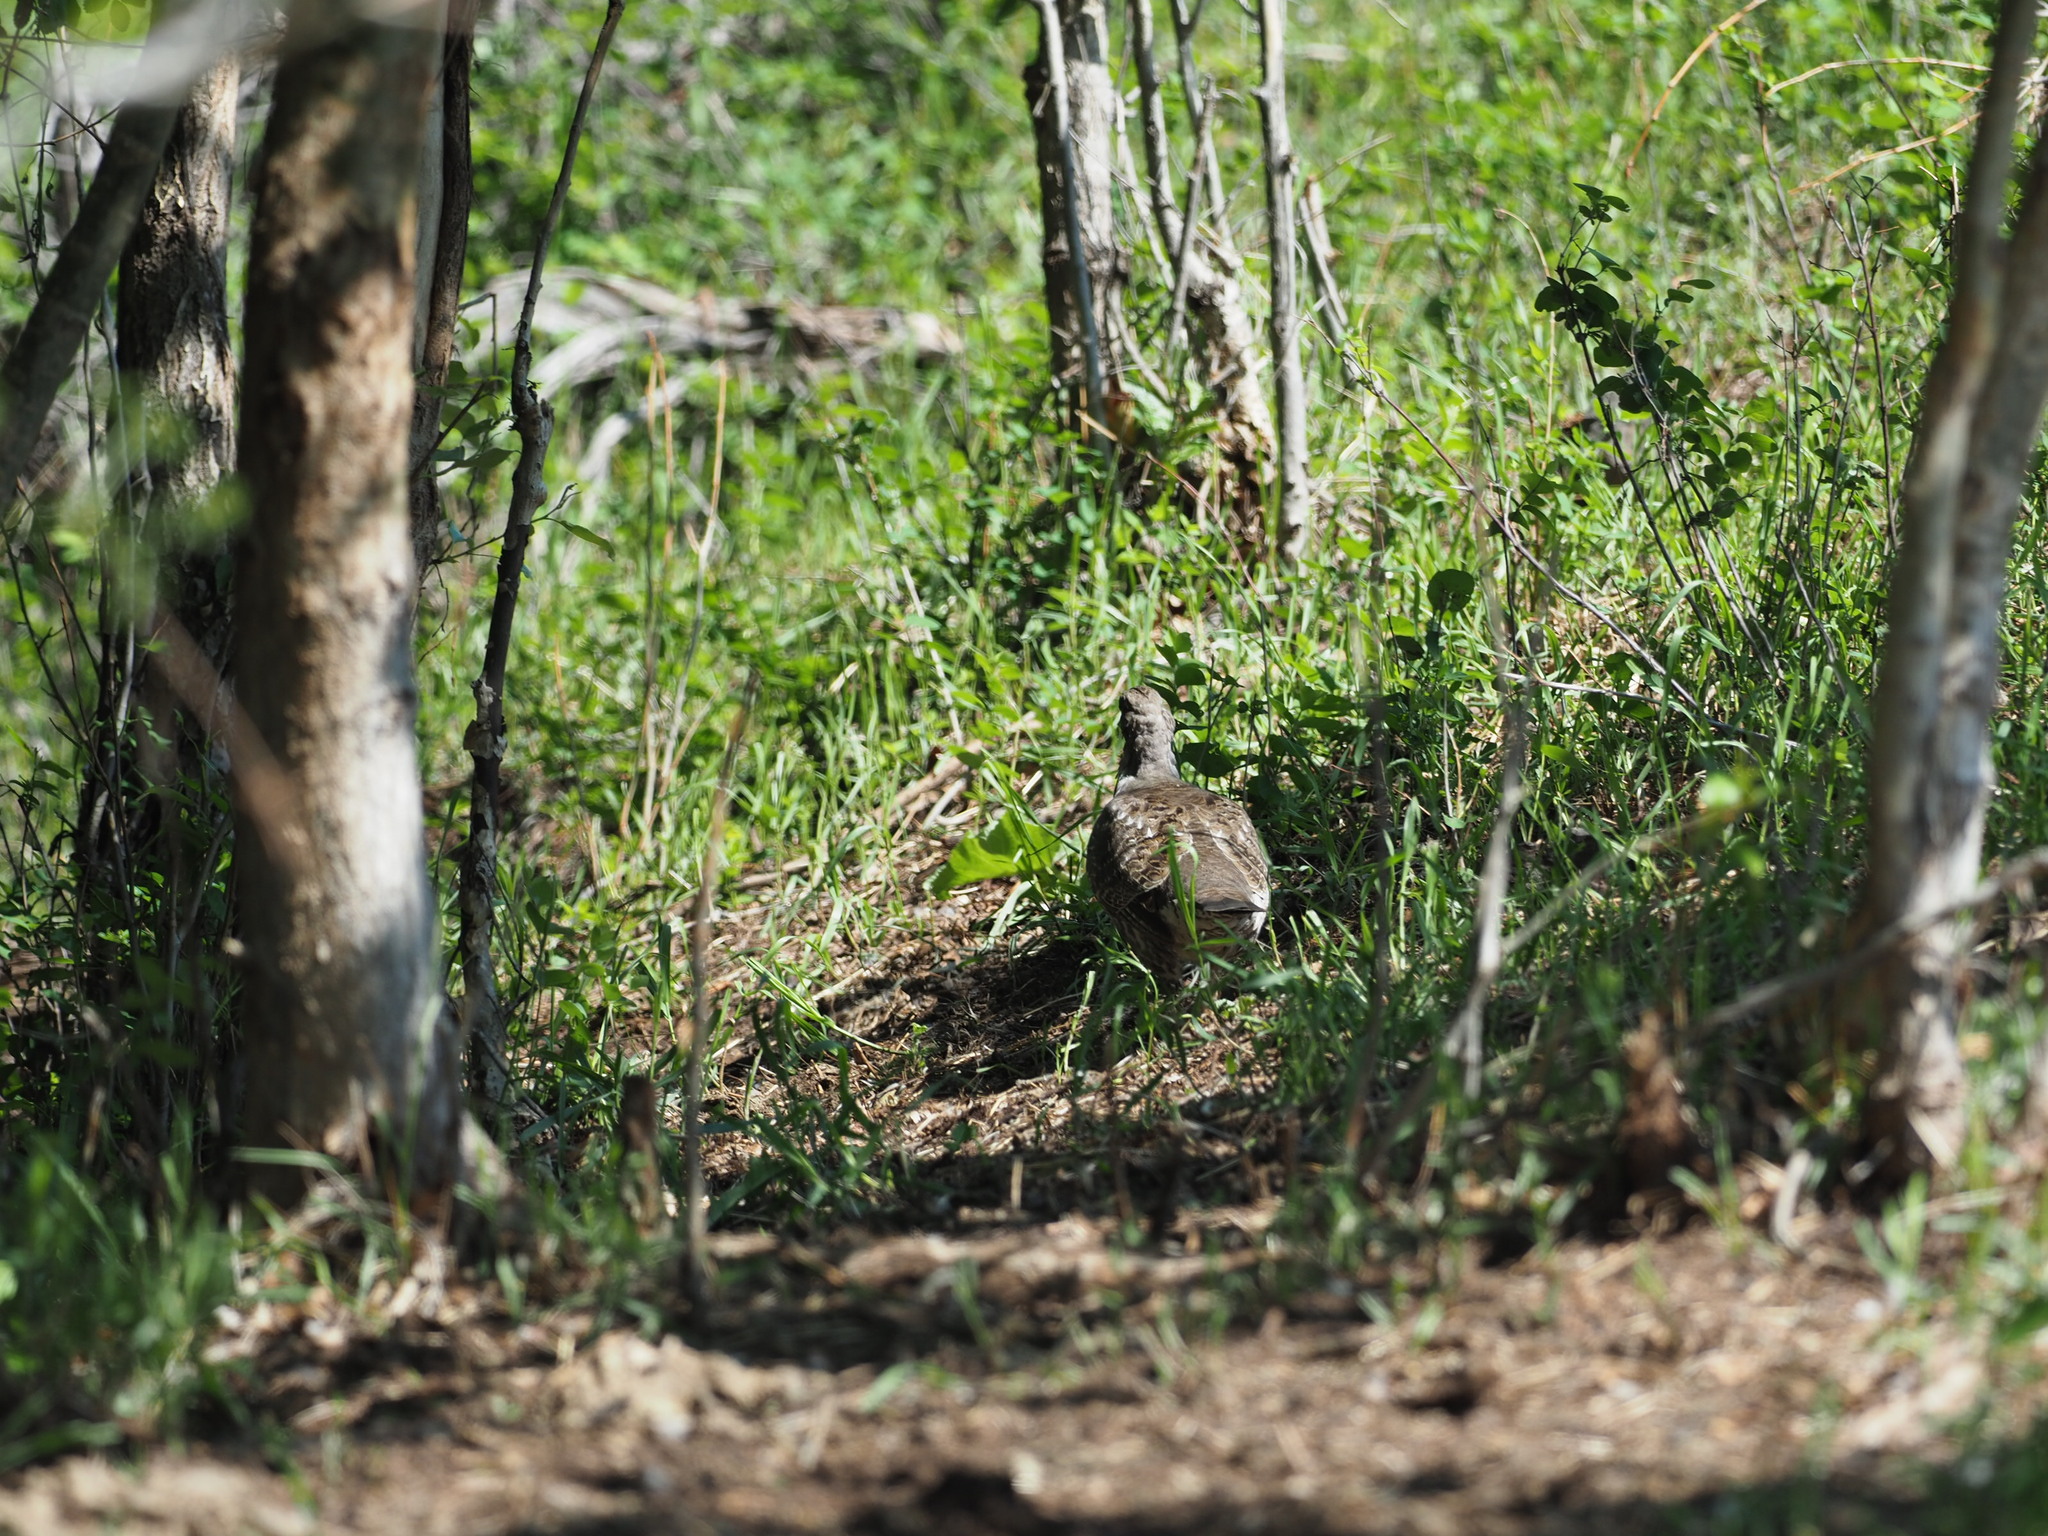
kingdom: Animalia
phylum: Chordata
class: Aves
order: Galliformes
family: Phasianidae
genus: Dendragapus
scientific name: Dendragapus obscurus
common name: Dusky grouse
